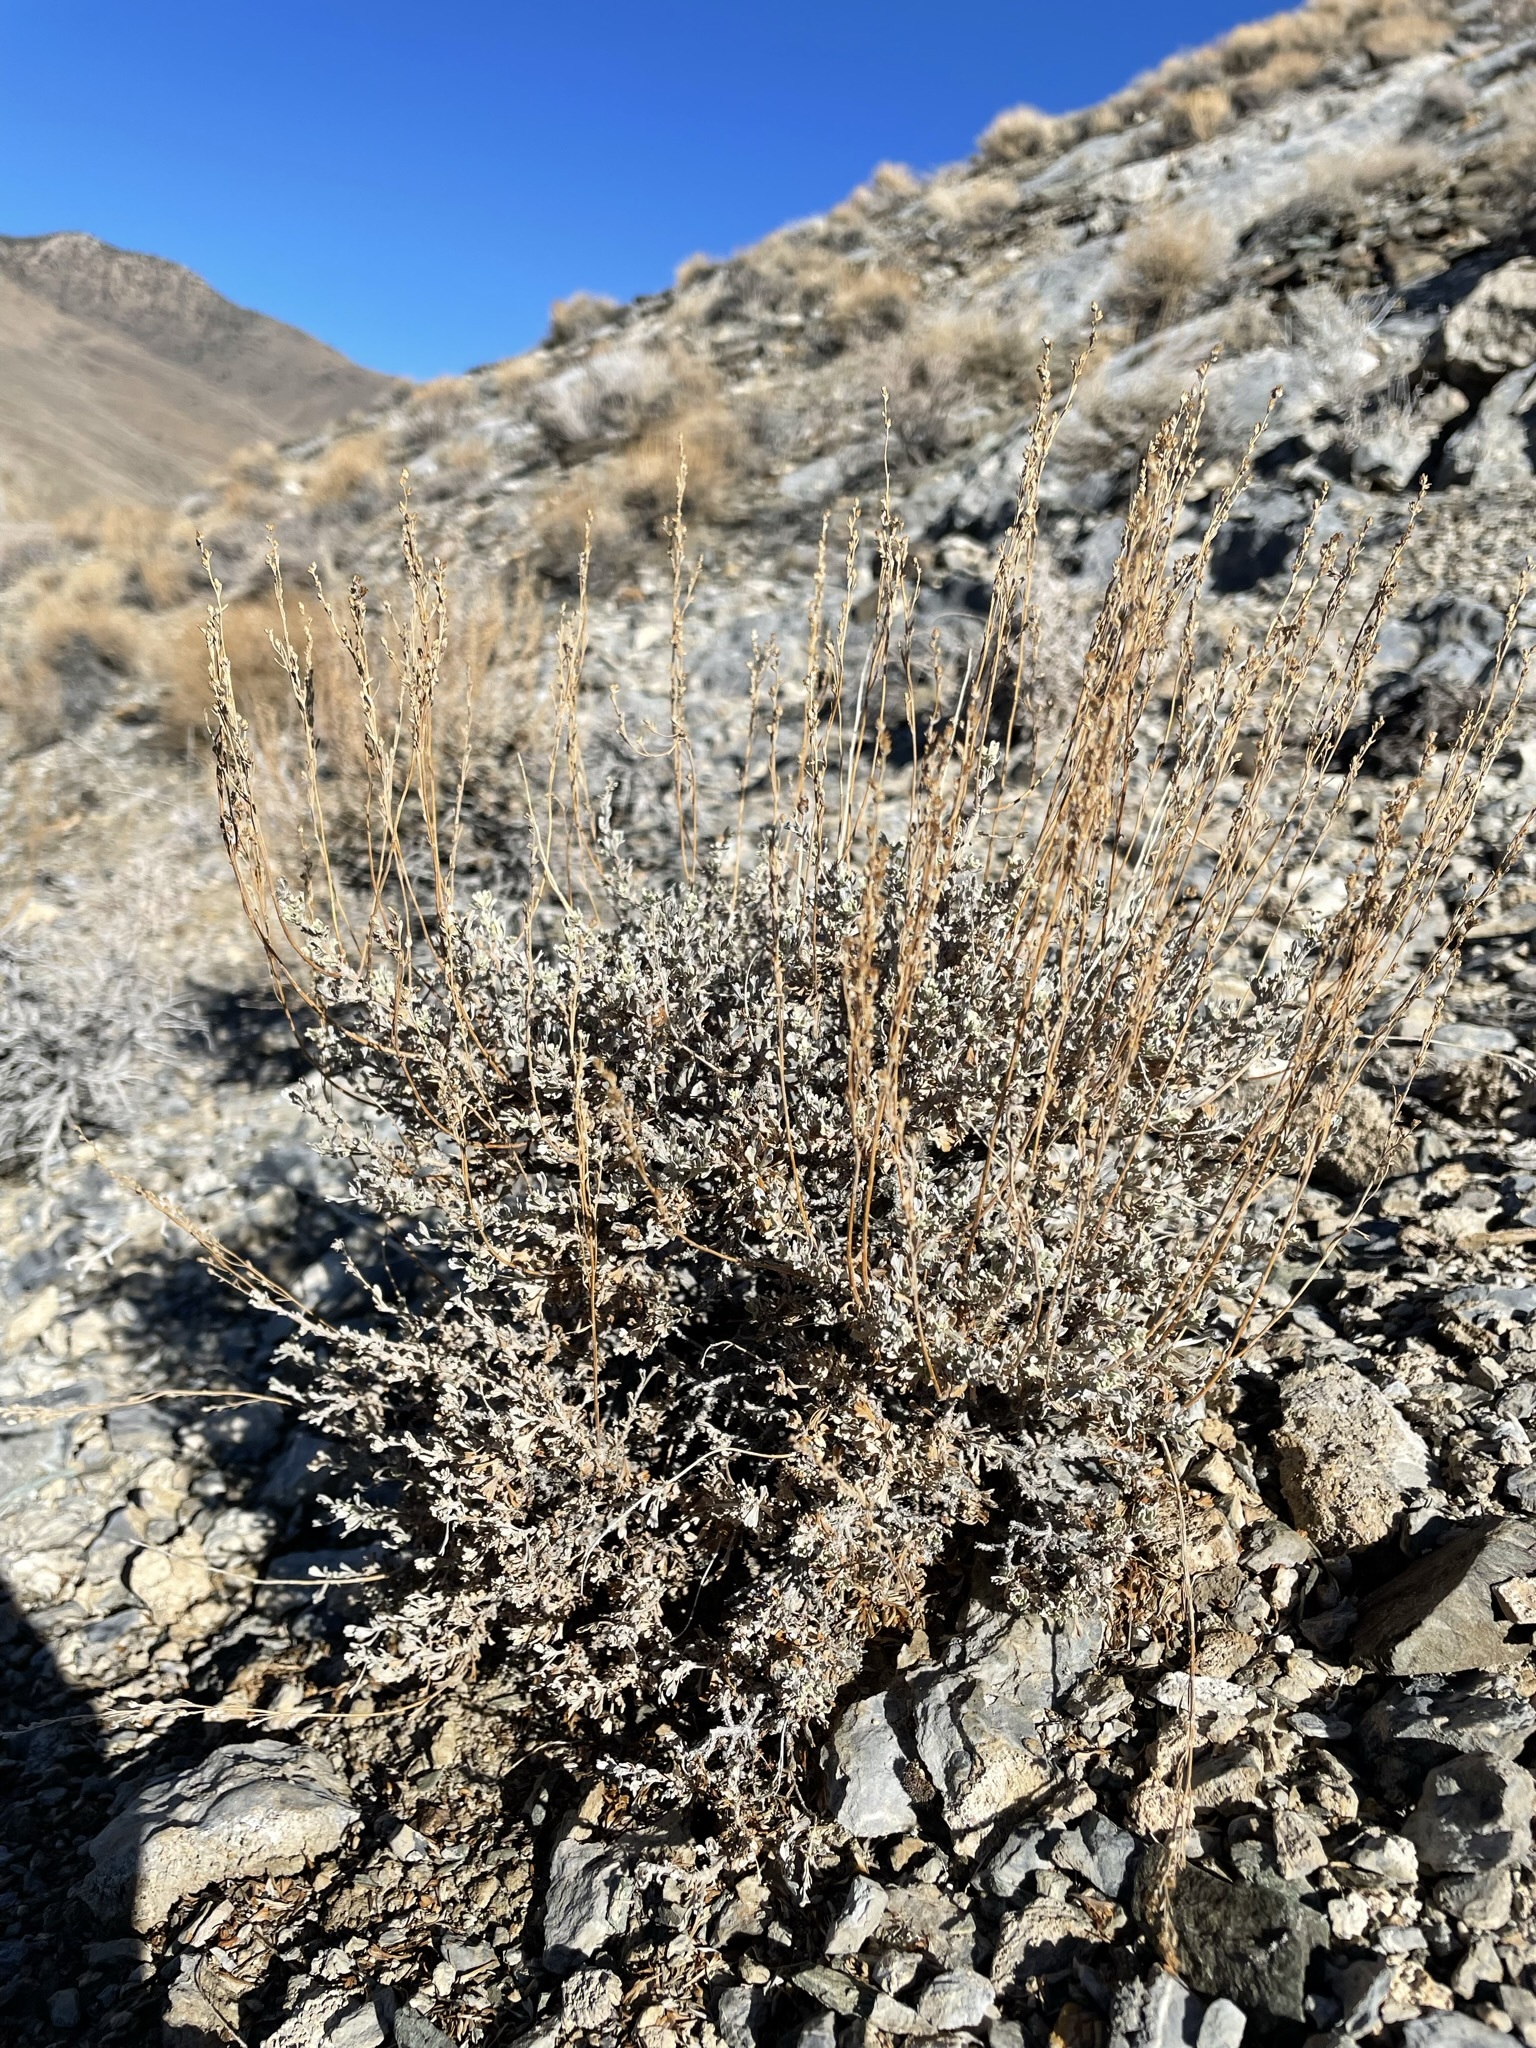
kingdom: Plantae
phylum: Tracheophyta
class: Magnoliopsida
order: Asterales
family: Asteraceae
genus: Artemisia
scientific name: Artemisia nova
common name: Black-sage
